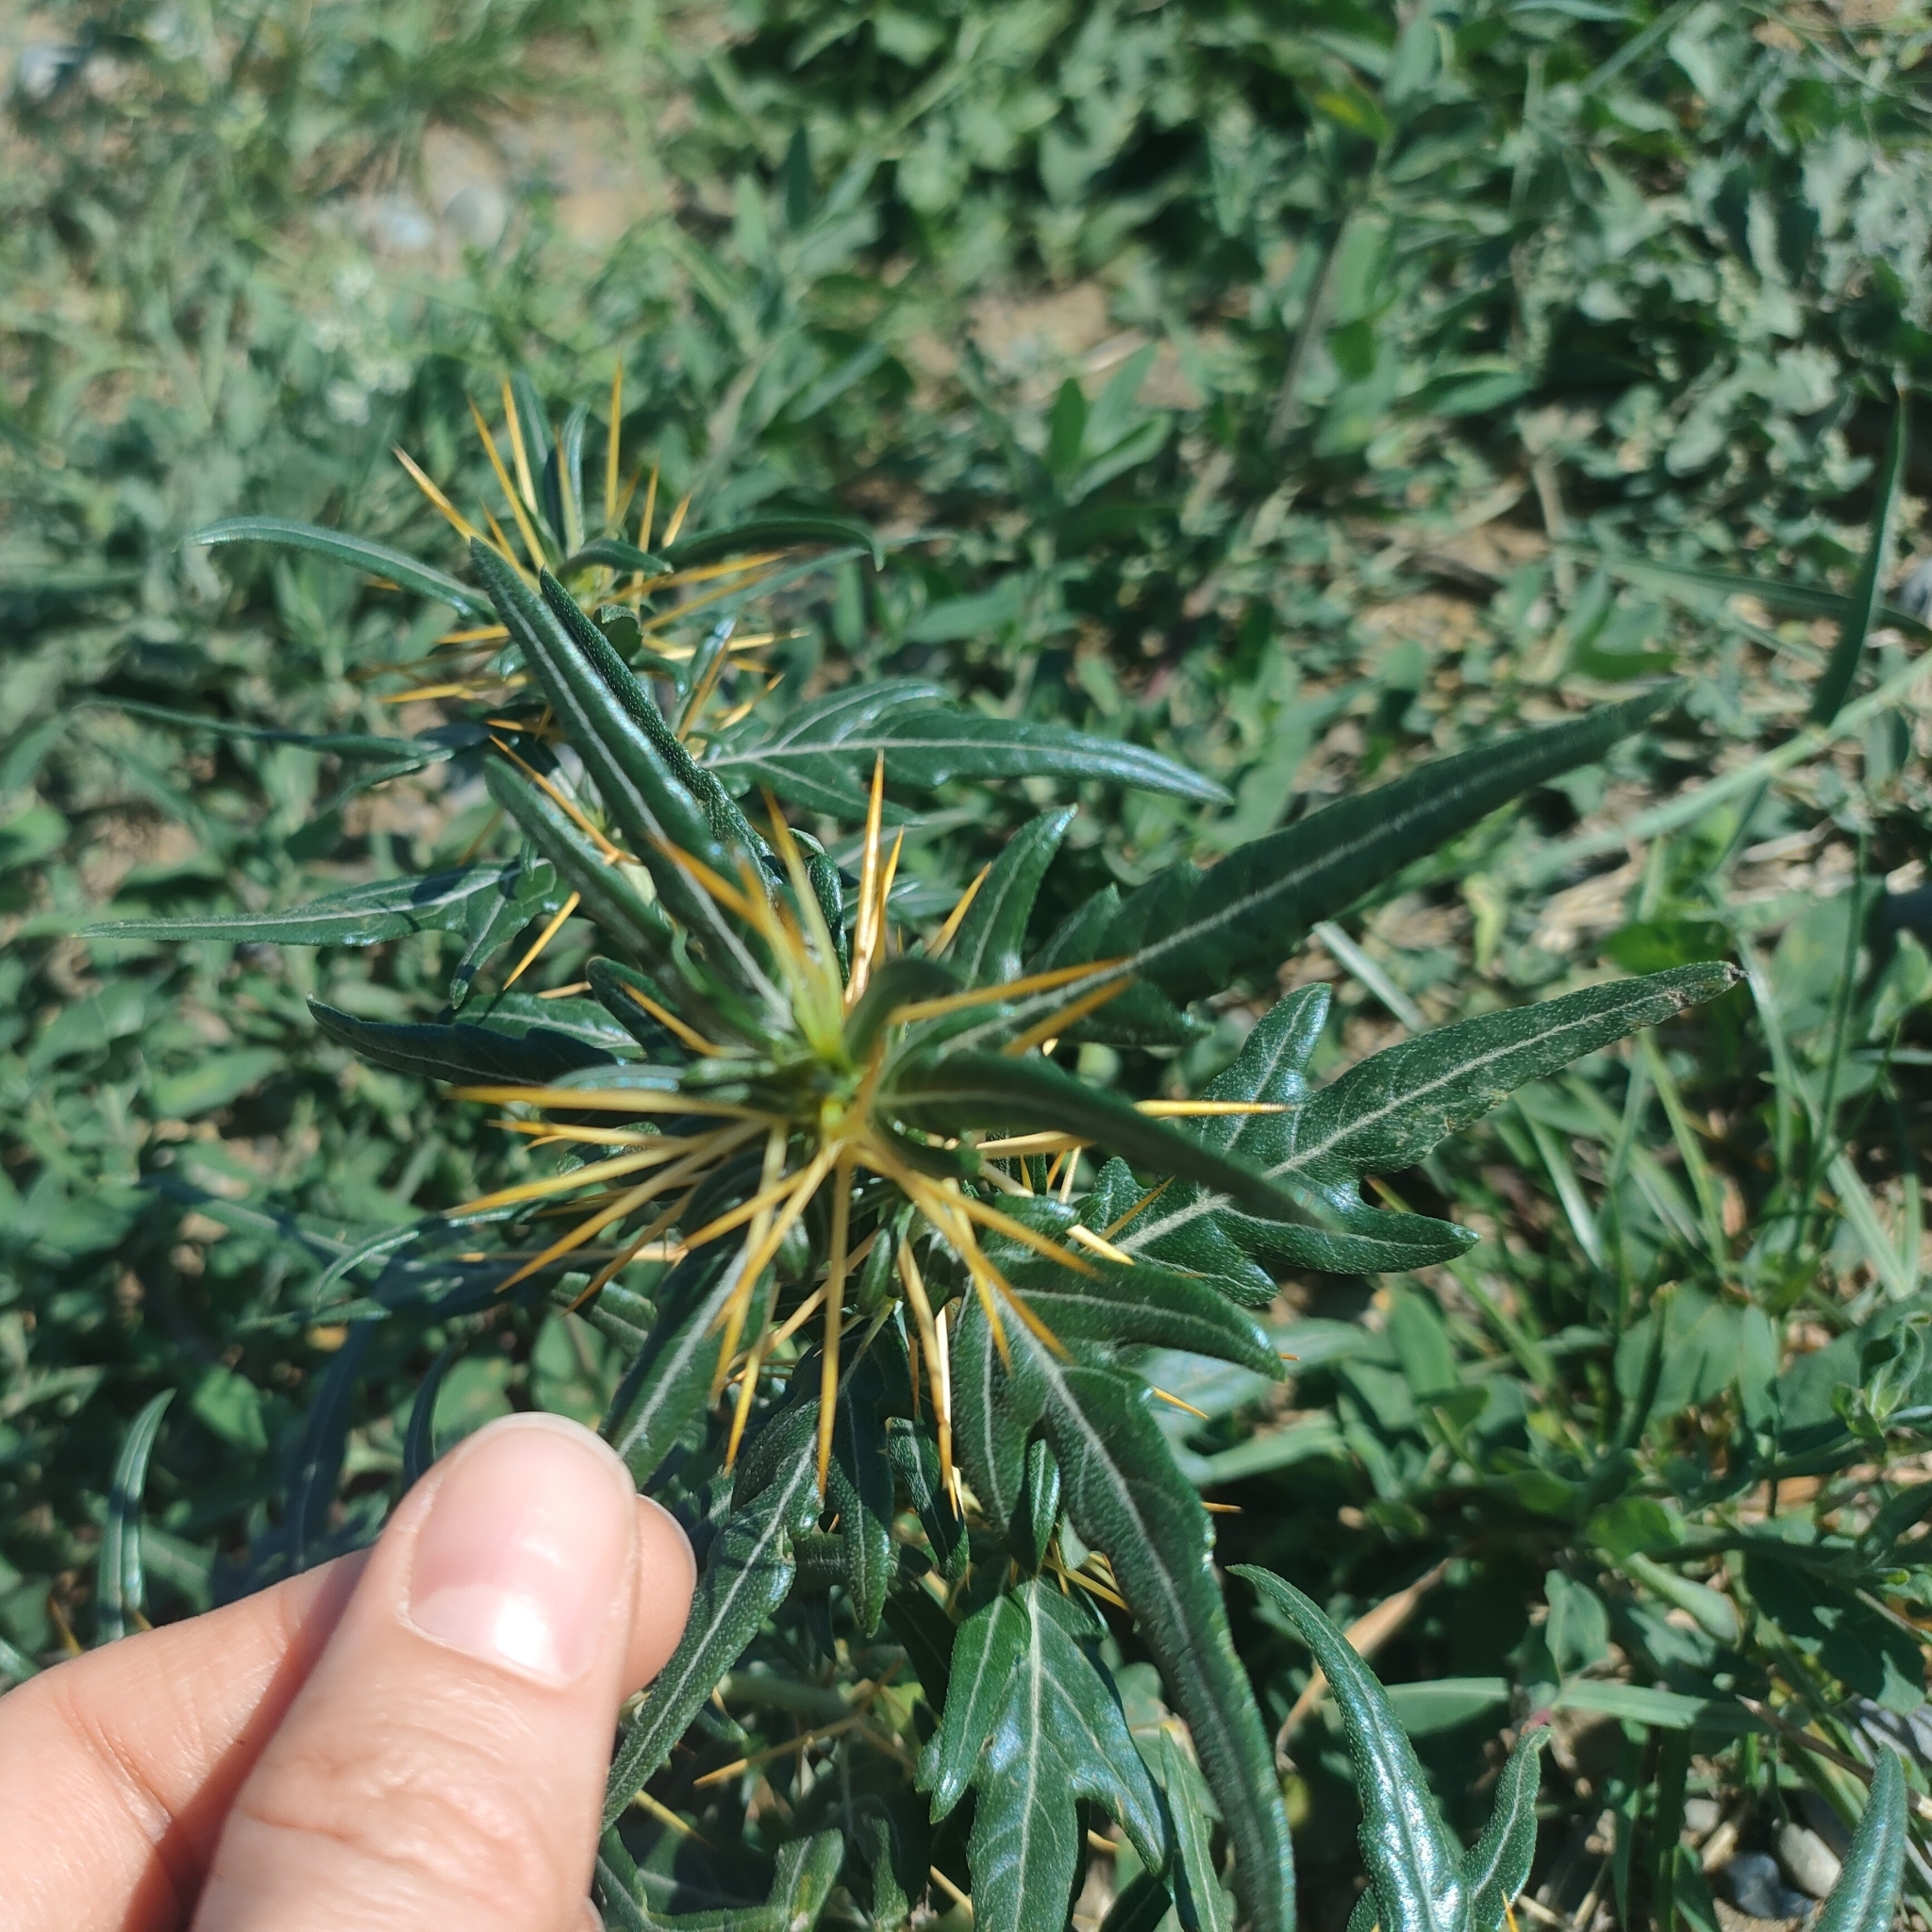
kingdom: Plantae
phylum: Tracheophyta
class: Magnoliopsida
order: Asterales
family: Asteraceae
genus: Xanthium
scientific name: Xanthium spinosum
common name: Spiny cocklebur
